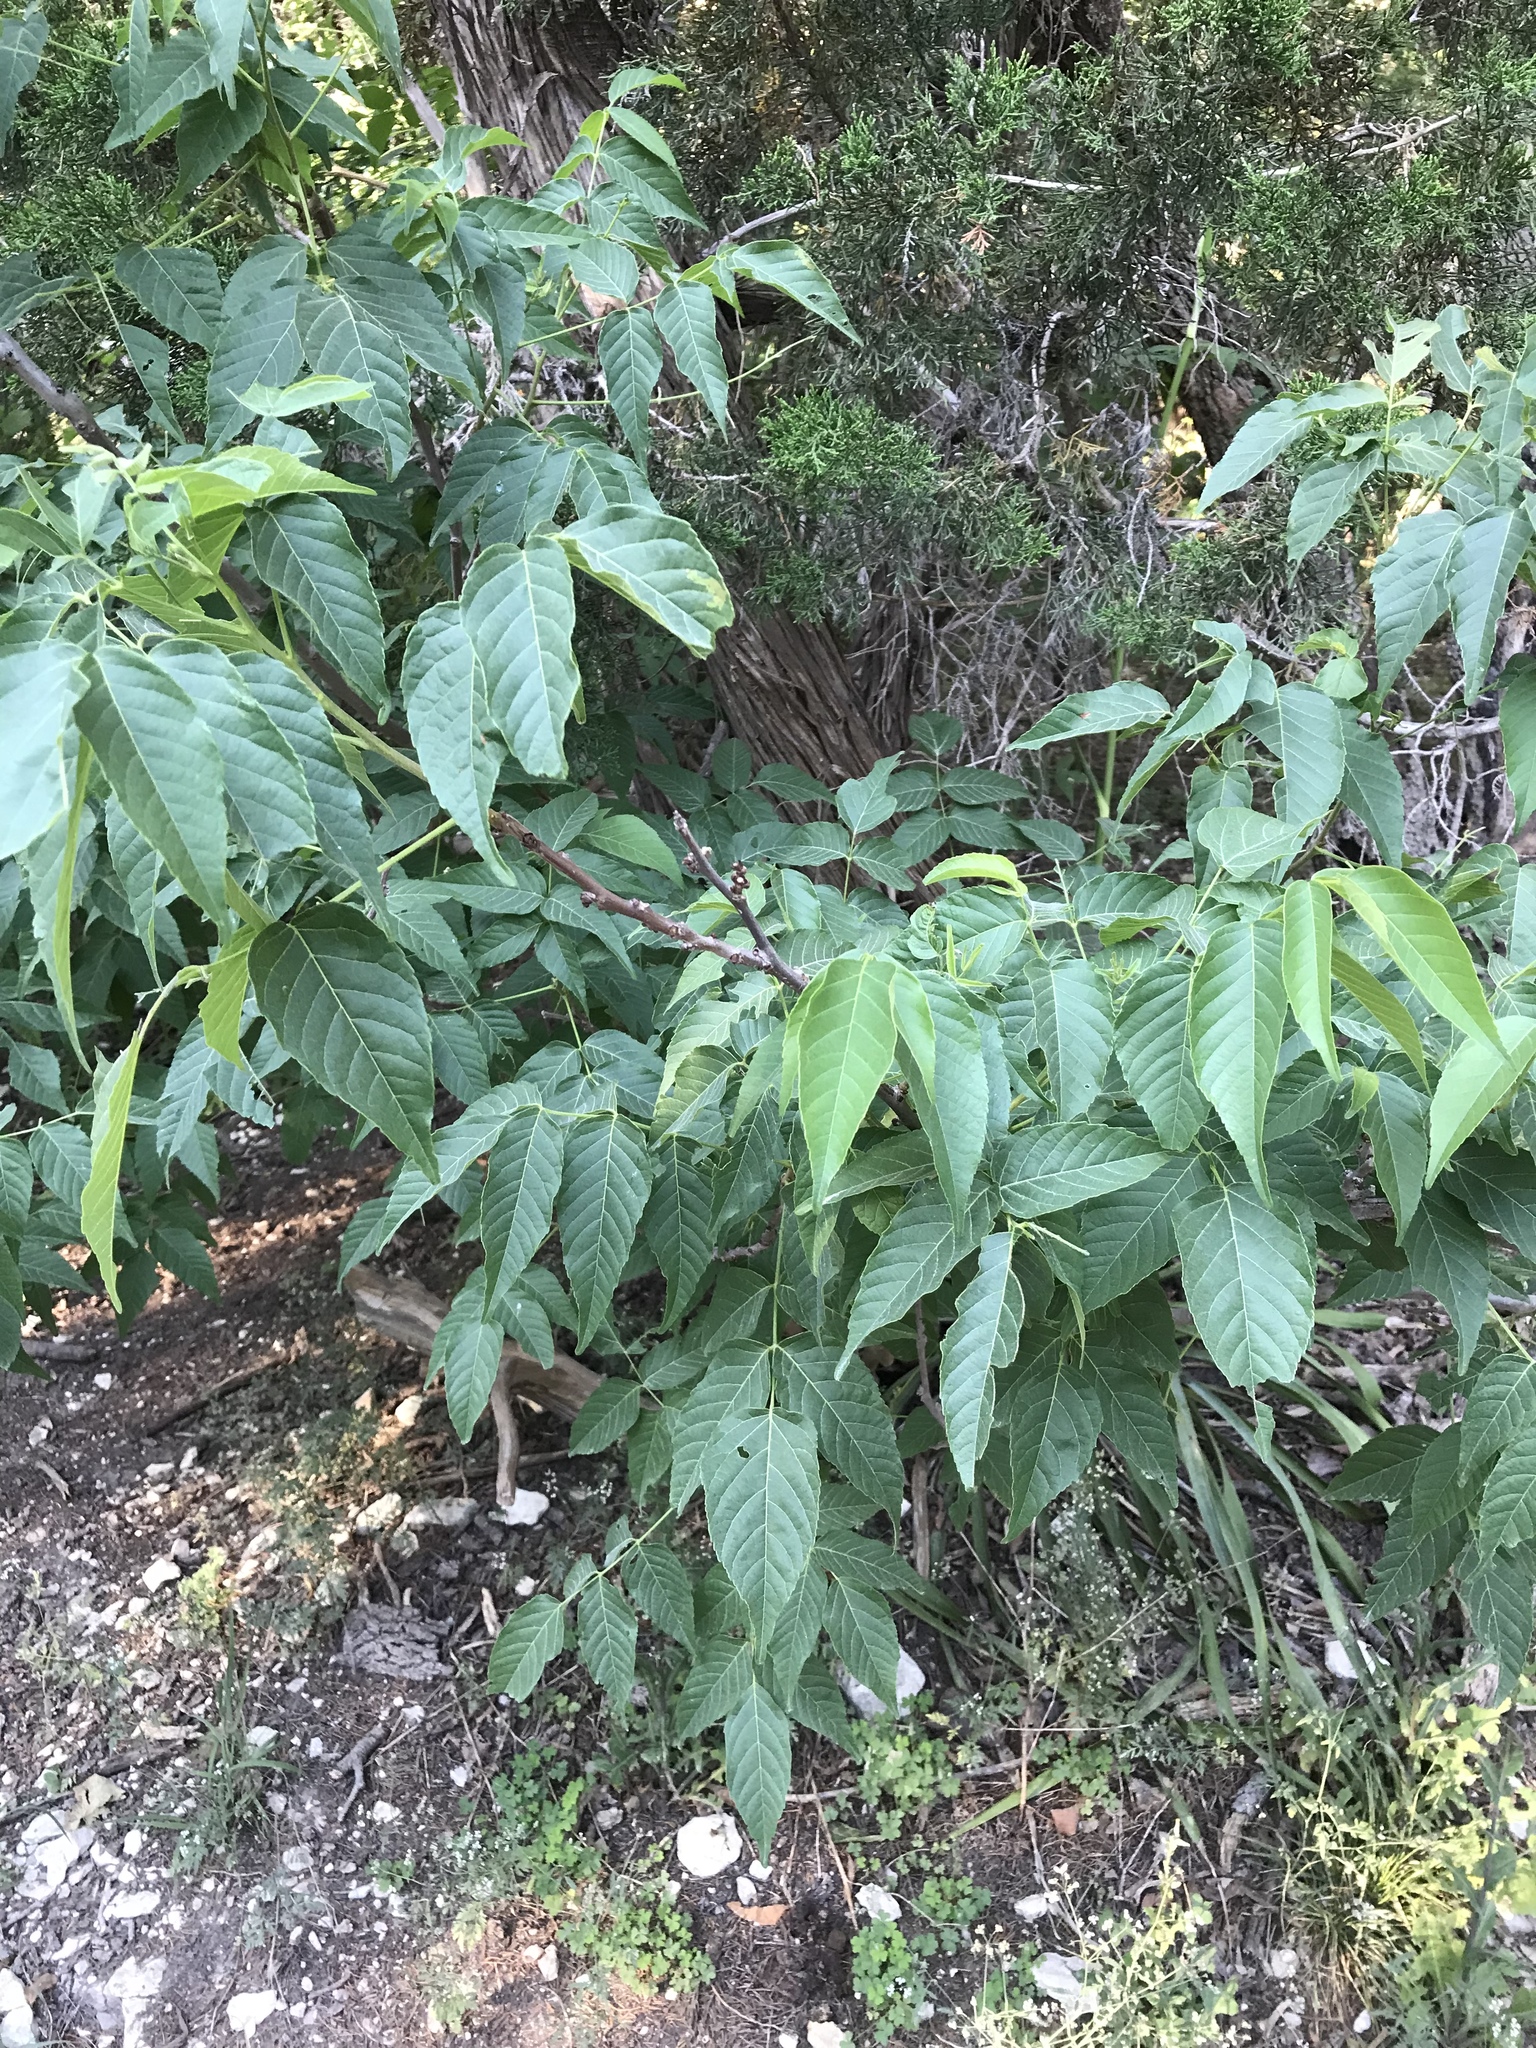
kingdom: Plantae
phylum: Tracheophyta
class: Magnoliopsida
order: Sapindales
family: Sapindaceae
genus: Ungnadia
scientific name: Ungnadia speciosa
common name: Texas-buckeye
